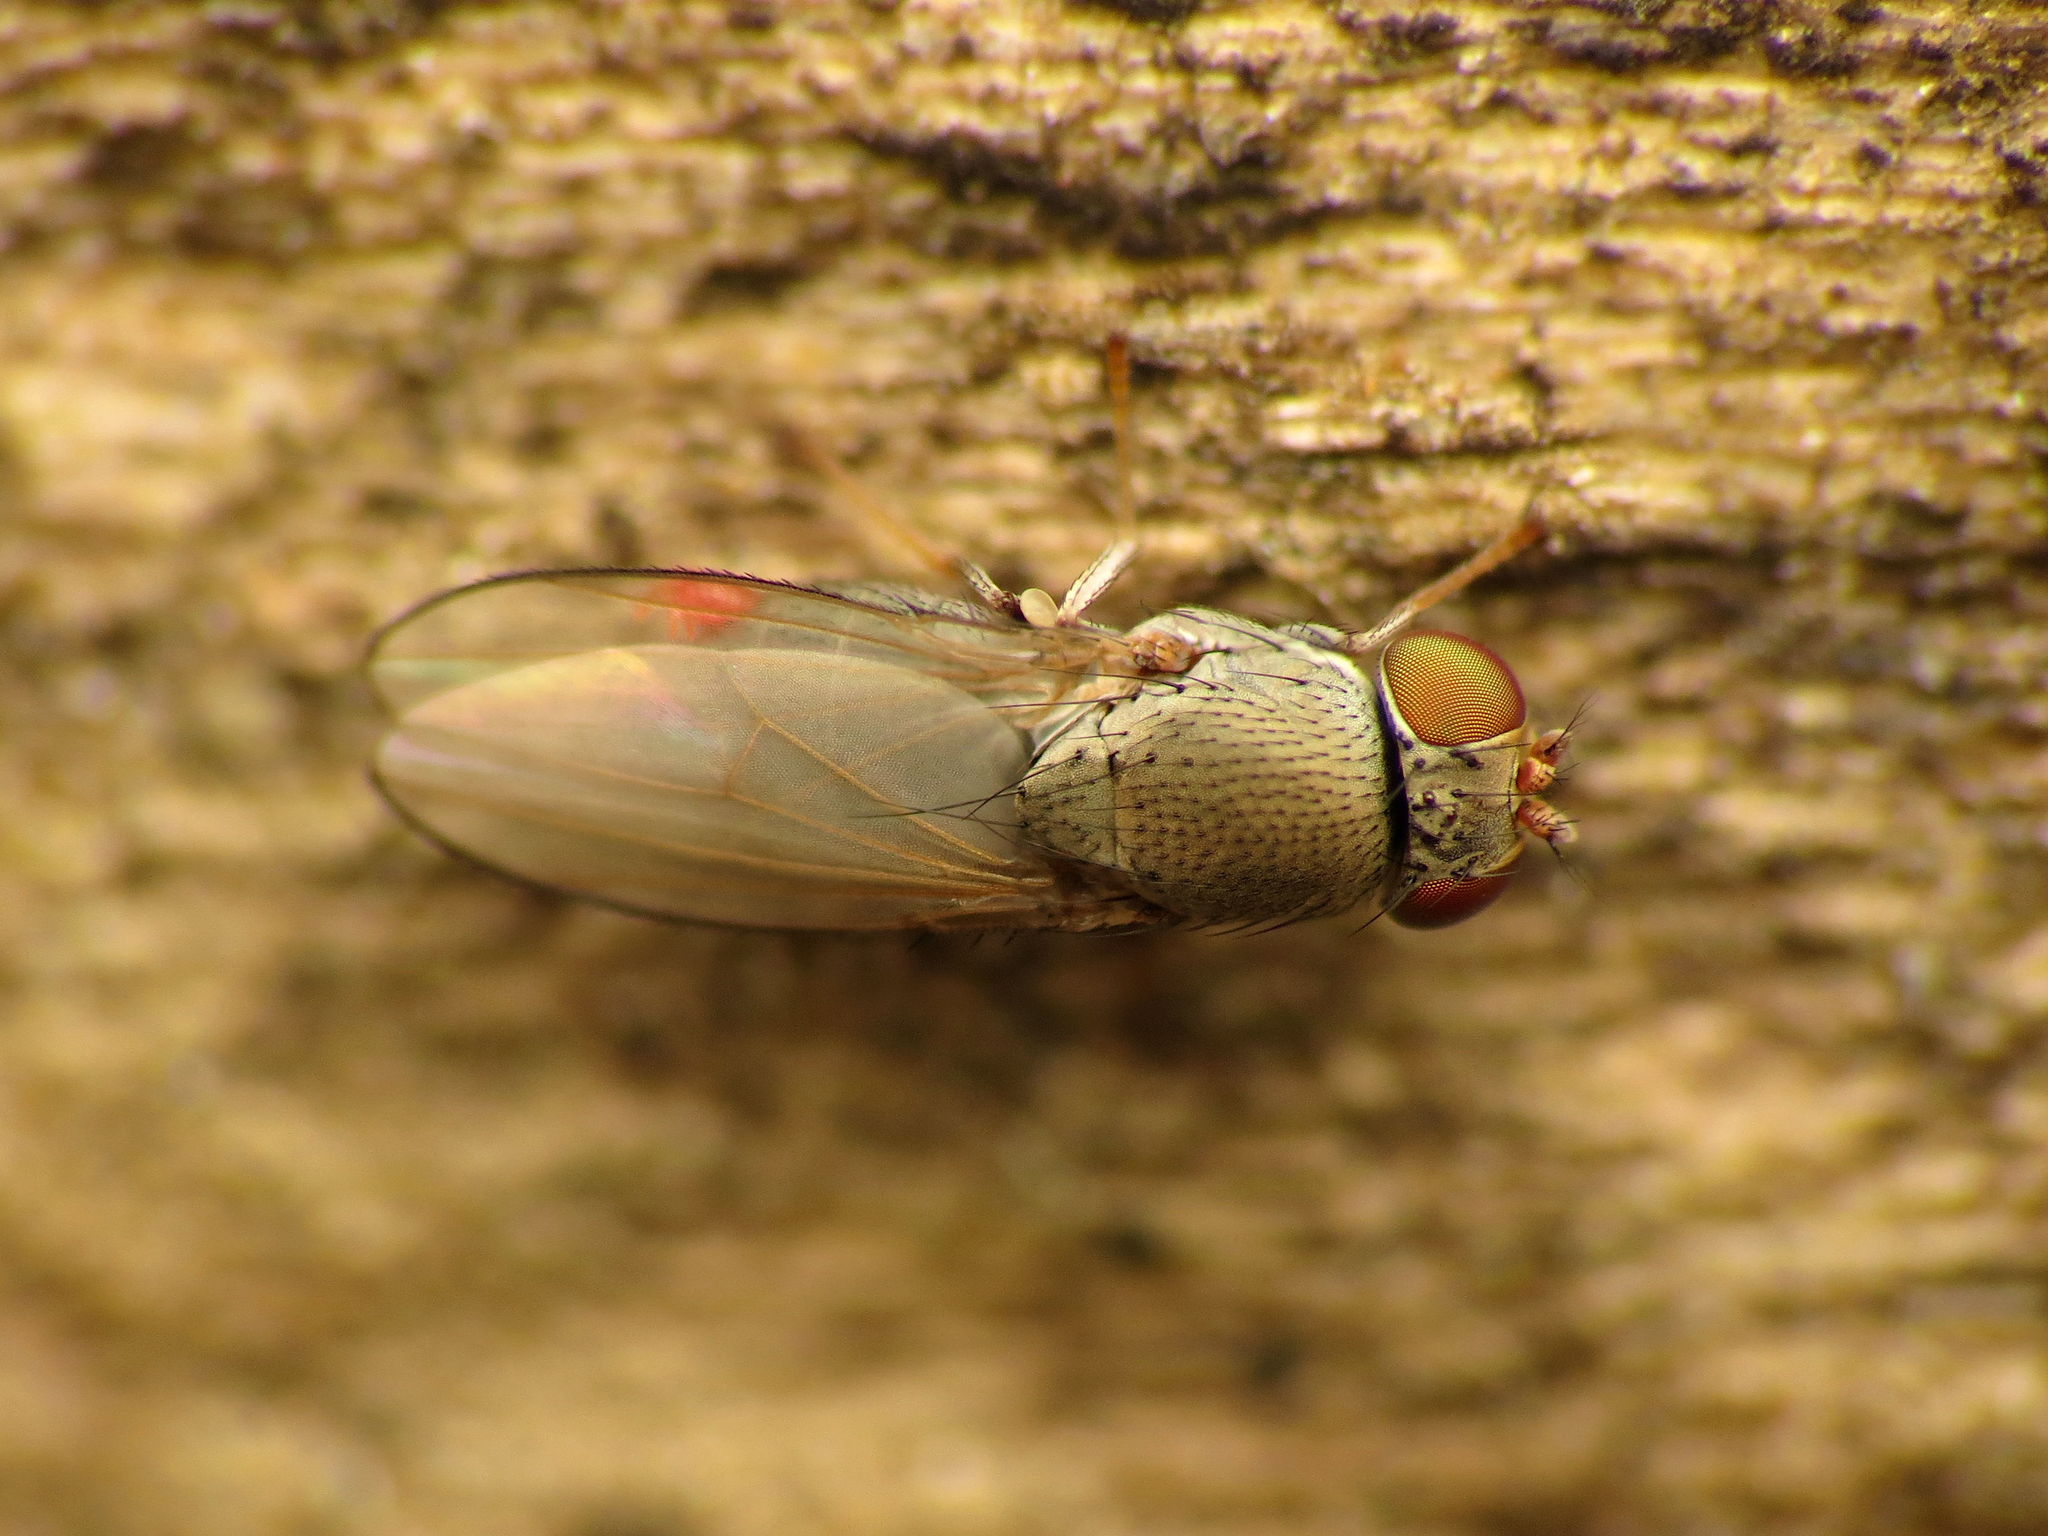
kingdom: Animalia
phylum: Arthropoda
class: Insecta
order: Diptera
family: Ephydridae
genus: Diclasiopa
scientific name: Diclasiopa lacteipennis
